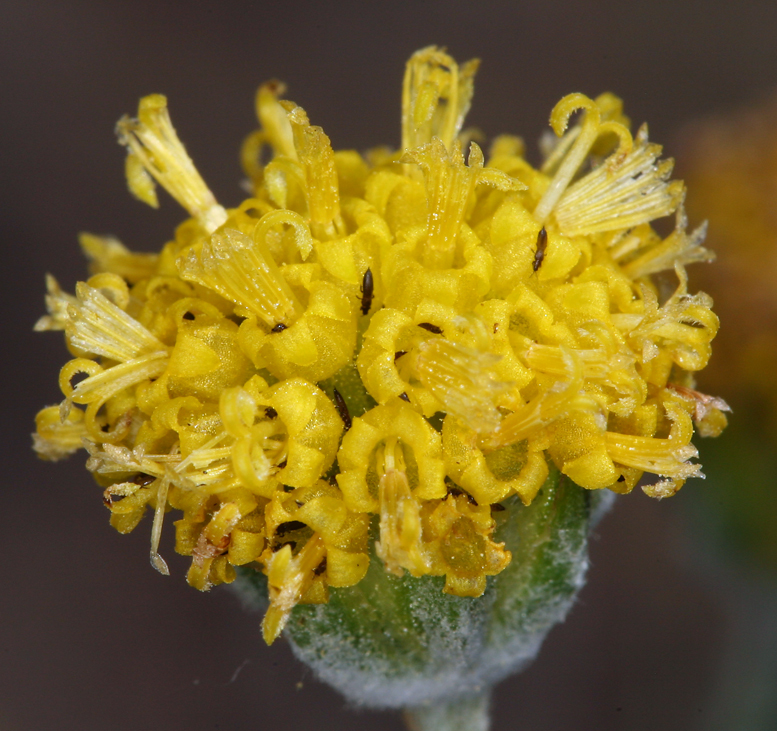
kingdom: Plantae
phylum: Tracheophyta
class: Magnoliopsida
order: Asterales
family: Asteraceae
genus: Hymenopappus
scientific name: Hymenopappus filifolius
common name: Columbia cutleaf
